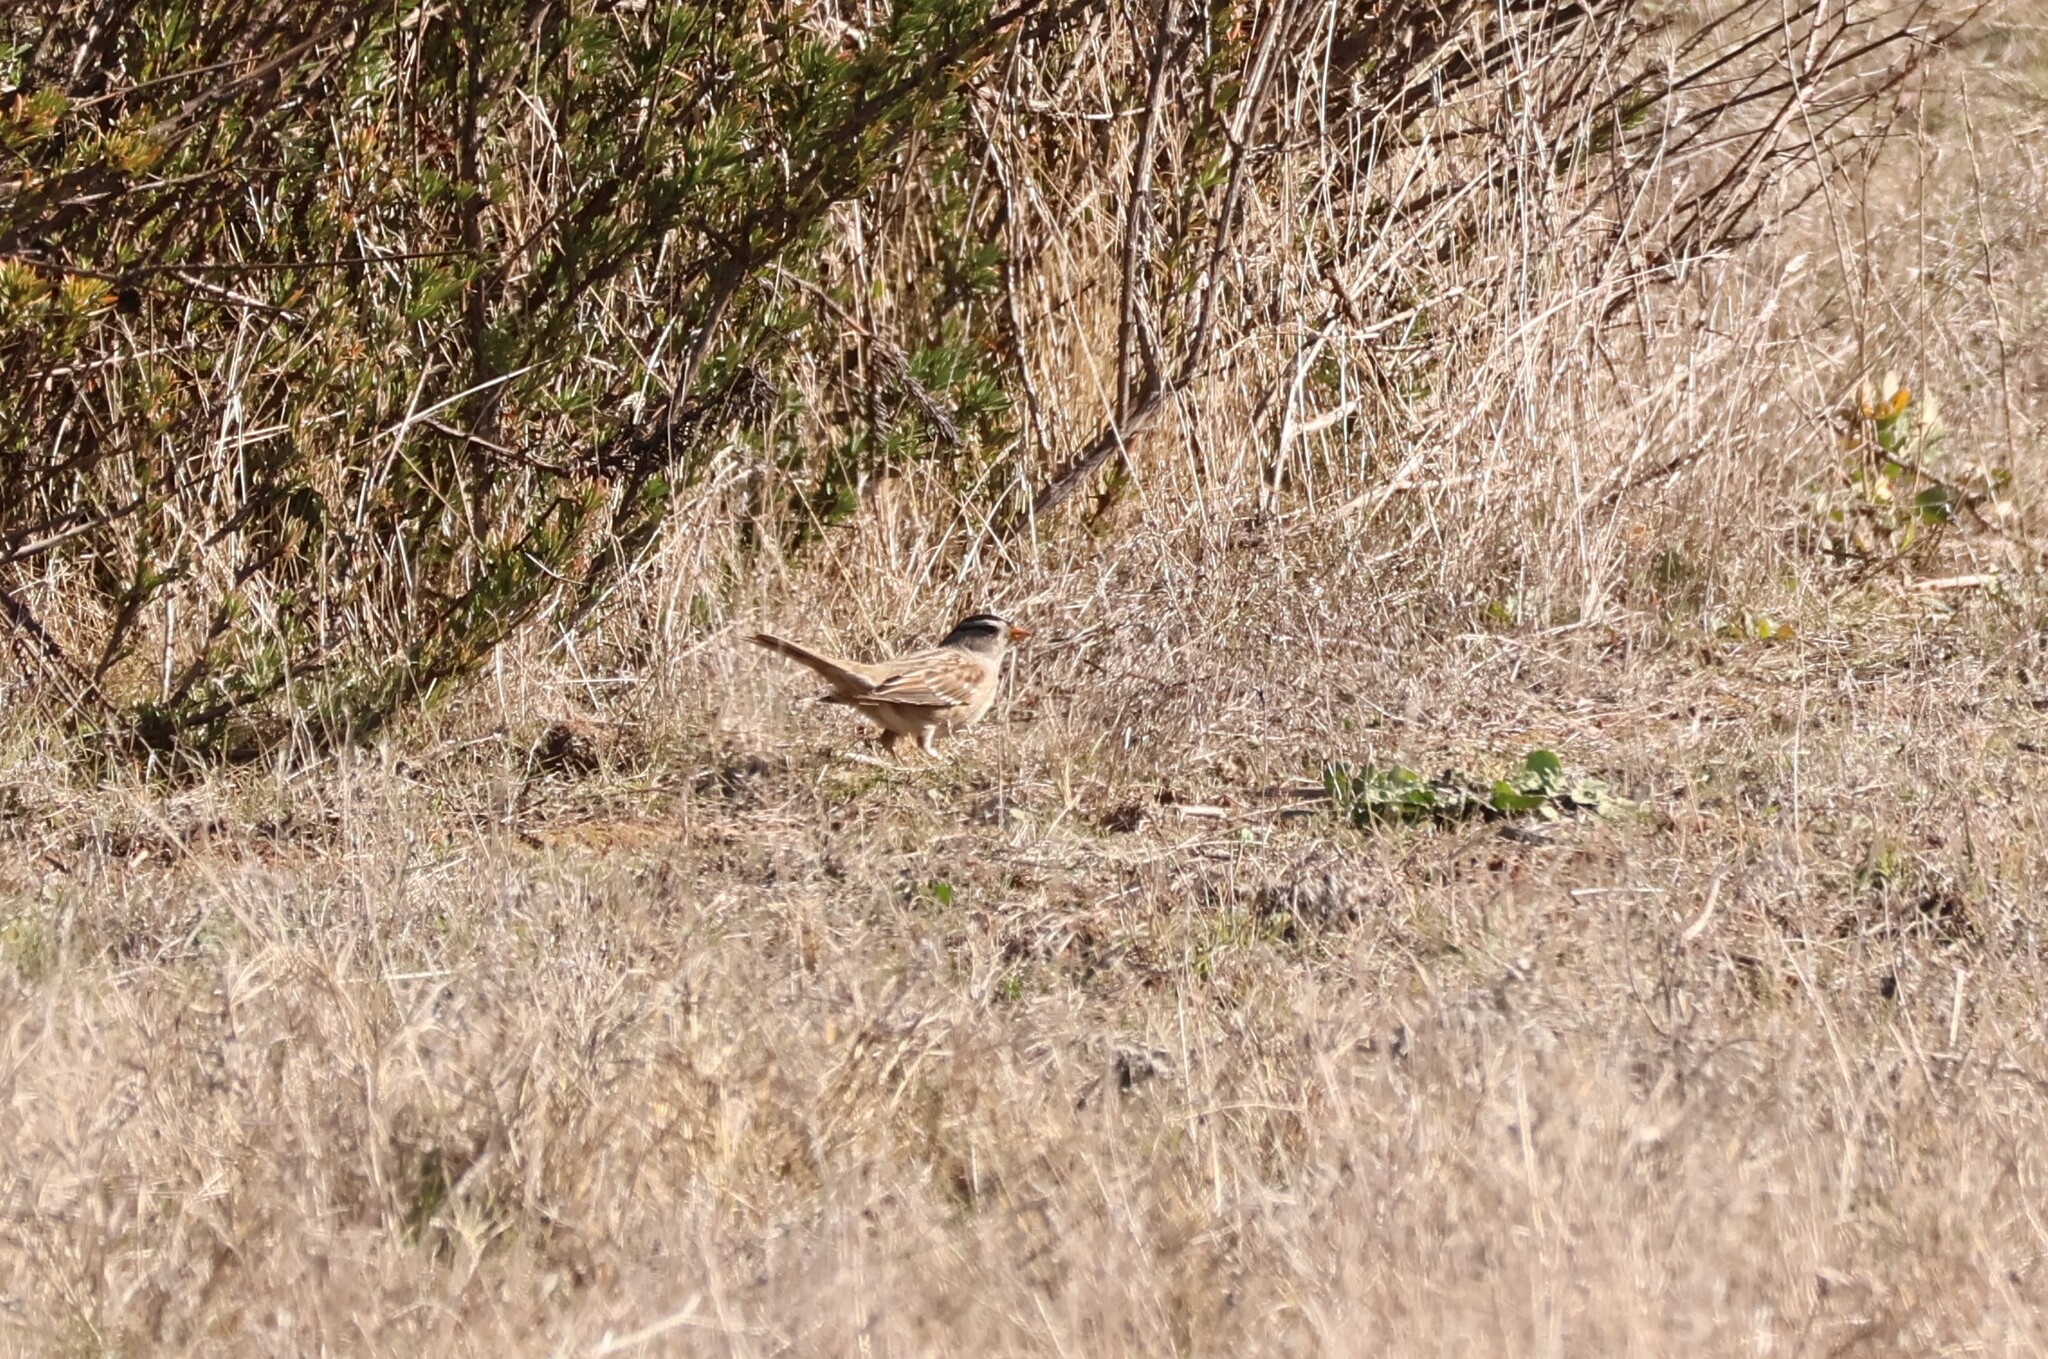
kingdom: Animalia
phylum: Chordata
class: Aves
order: Passeriformes
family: Passerellidae
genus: Zonotrichia
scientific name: Zonotrichia leucophrys
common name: White-crowned sparrow
